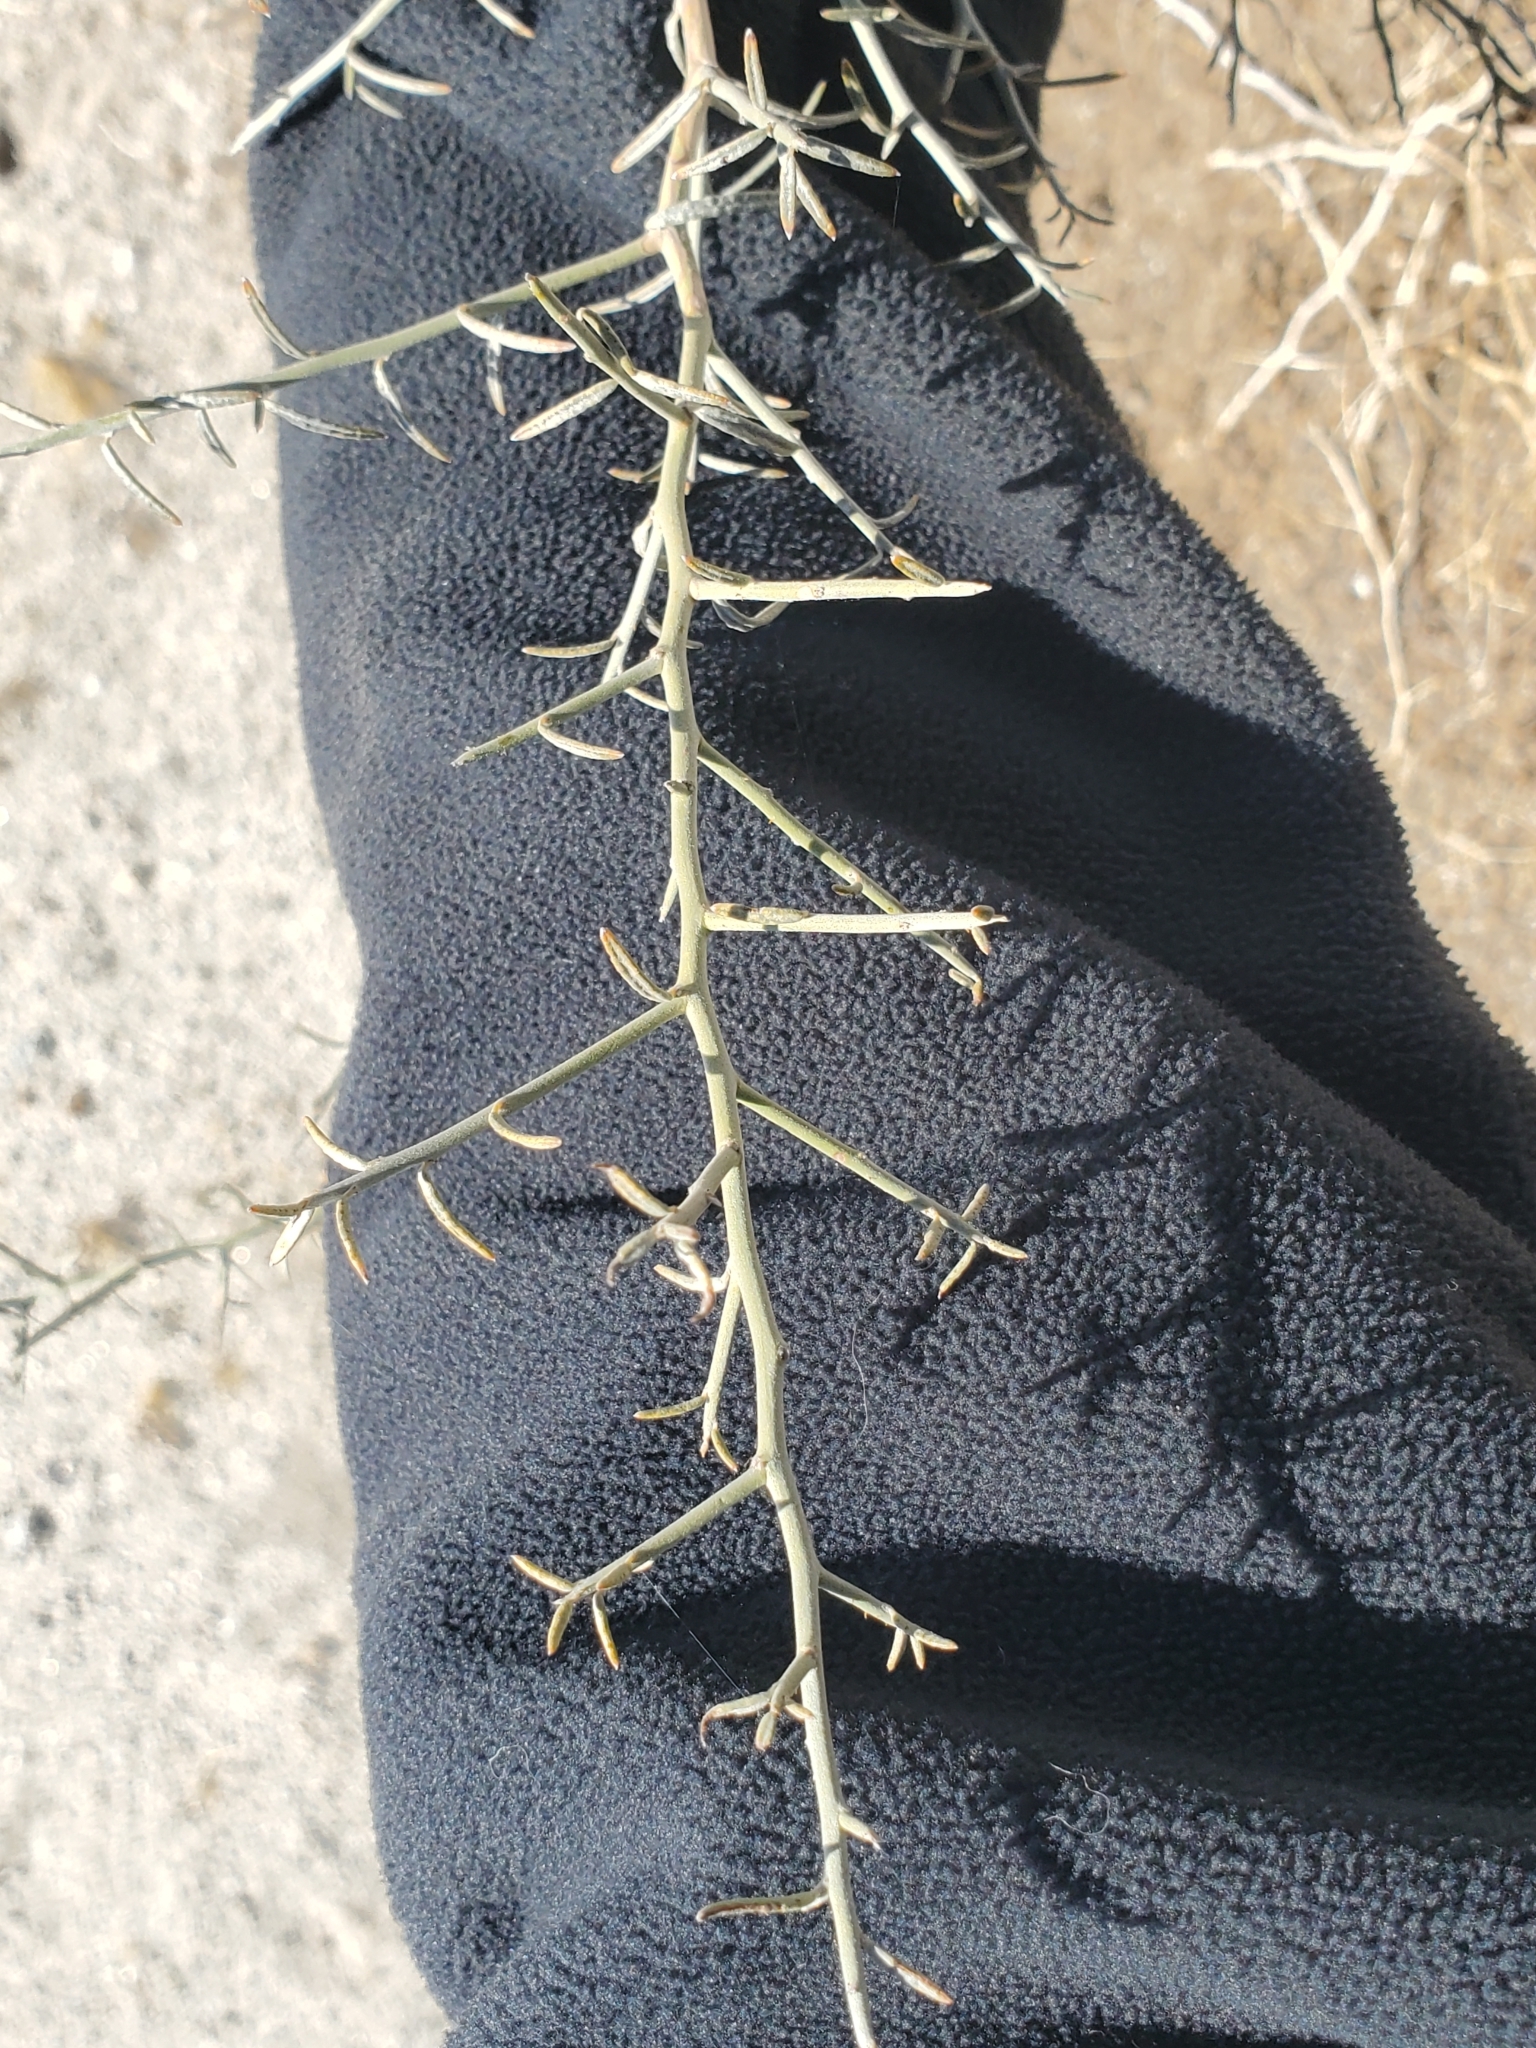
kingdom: Plantae
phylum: Tracheophyta
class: Magnoliopsida
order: Fabales
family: Fabaceae
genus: Psorothamnus
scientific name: Psorothamnus schottii
